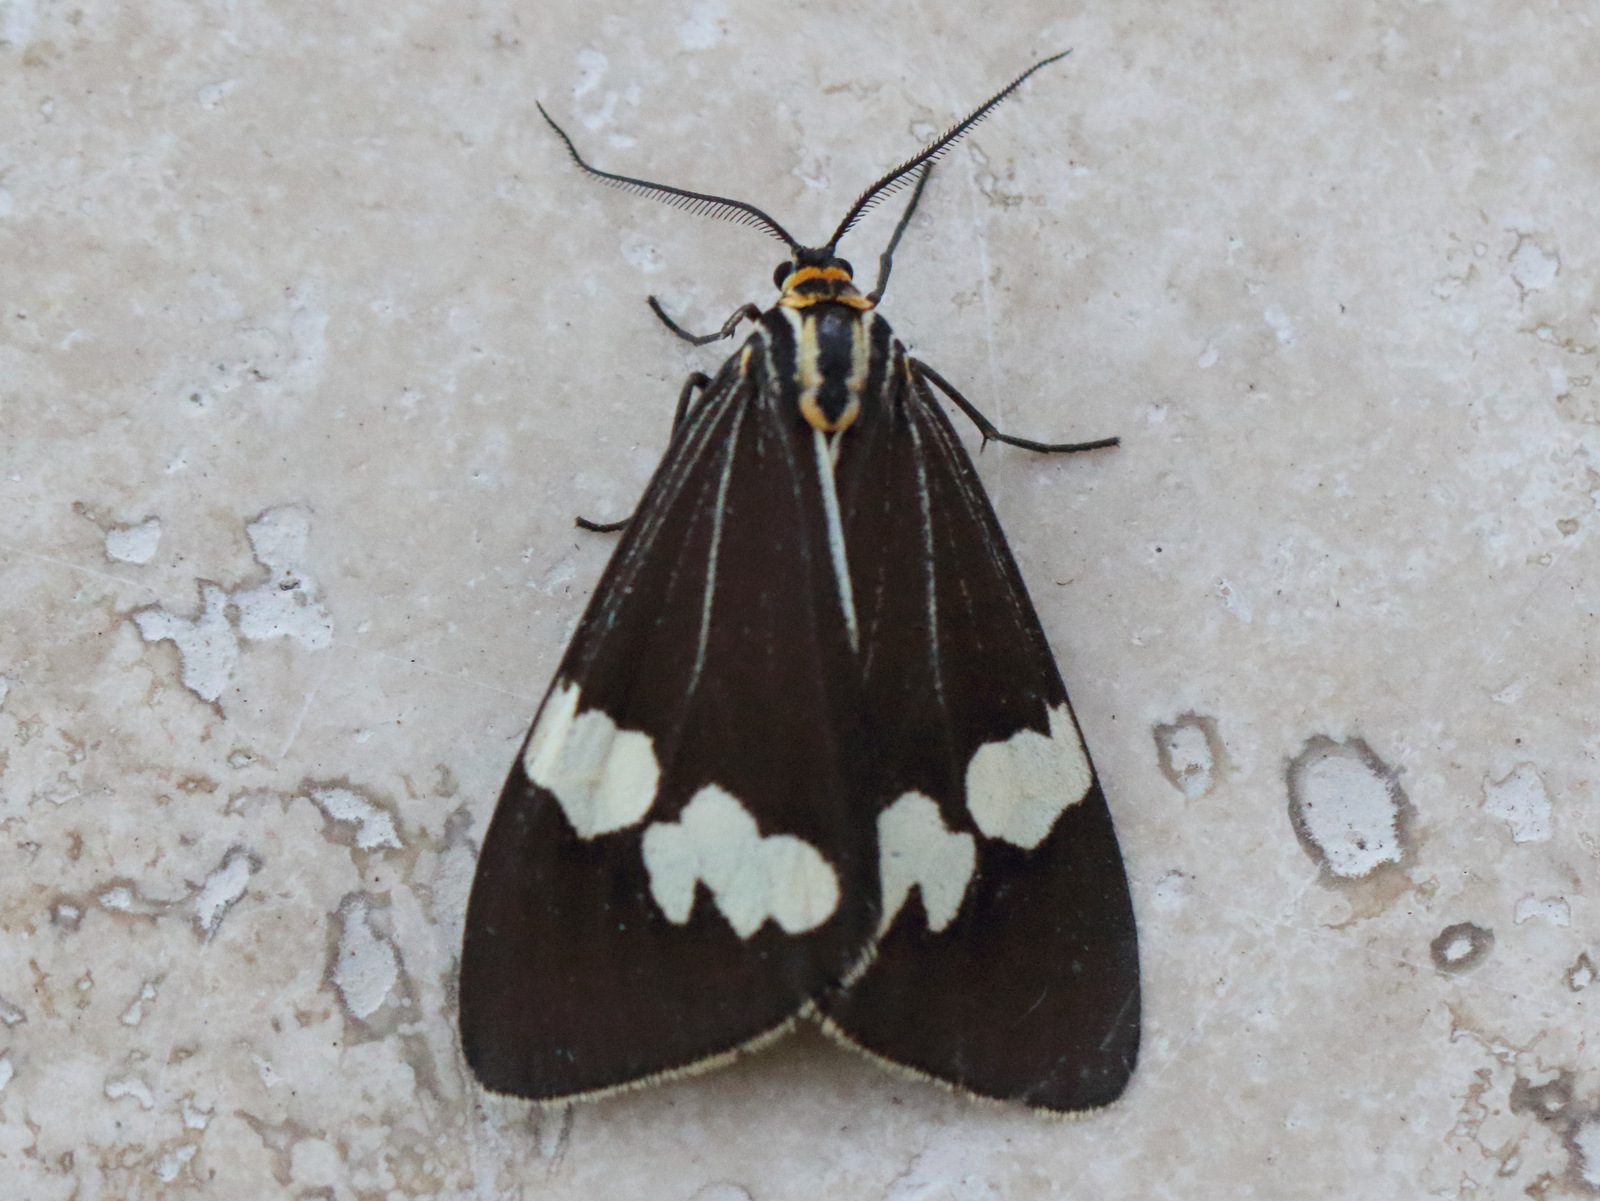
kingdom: Animalia
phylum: Arthropoda
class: Insecta
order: Lepidoptera
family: Erebidae
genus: Nyctemera
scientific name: Nyctemera amicus
